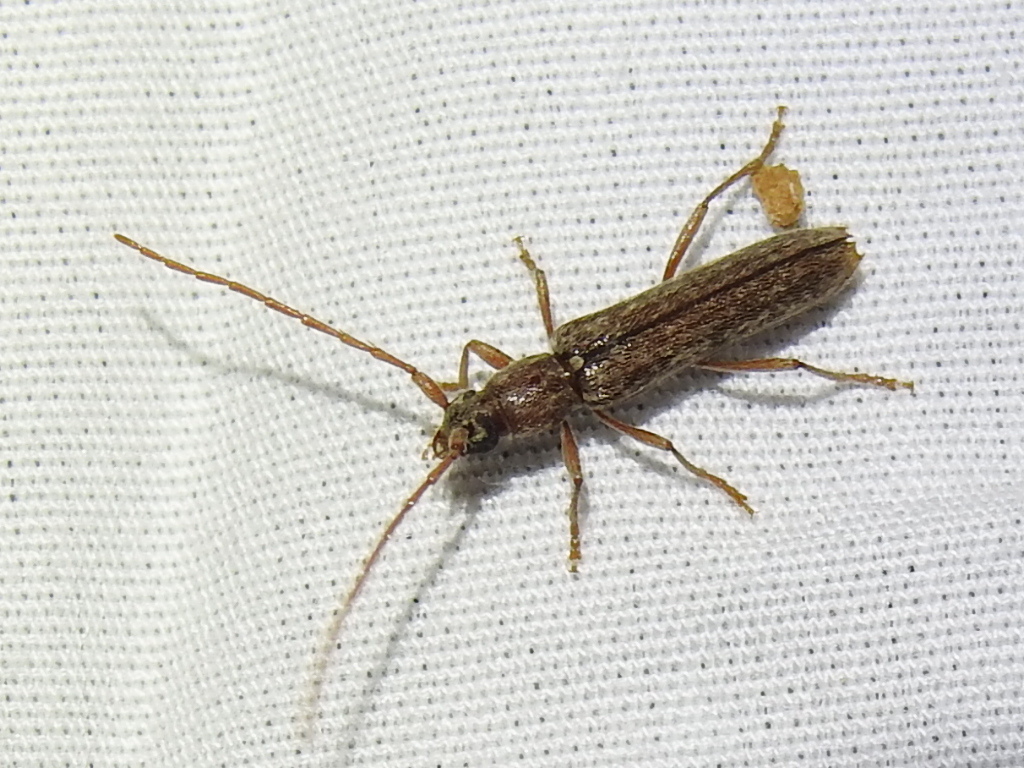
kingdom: Animalia
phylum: Arthropoda
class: Insecta
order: Coleoptera
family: Cerambycidae
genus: Anelaphus
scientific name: Anelaphus villosus
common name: Twig pruner
